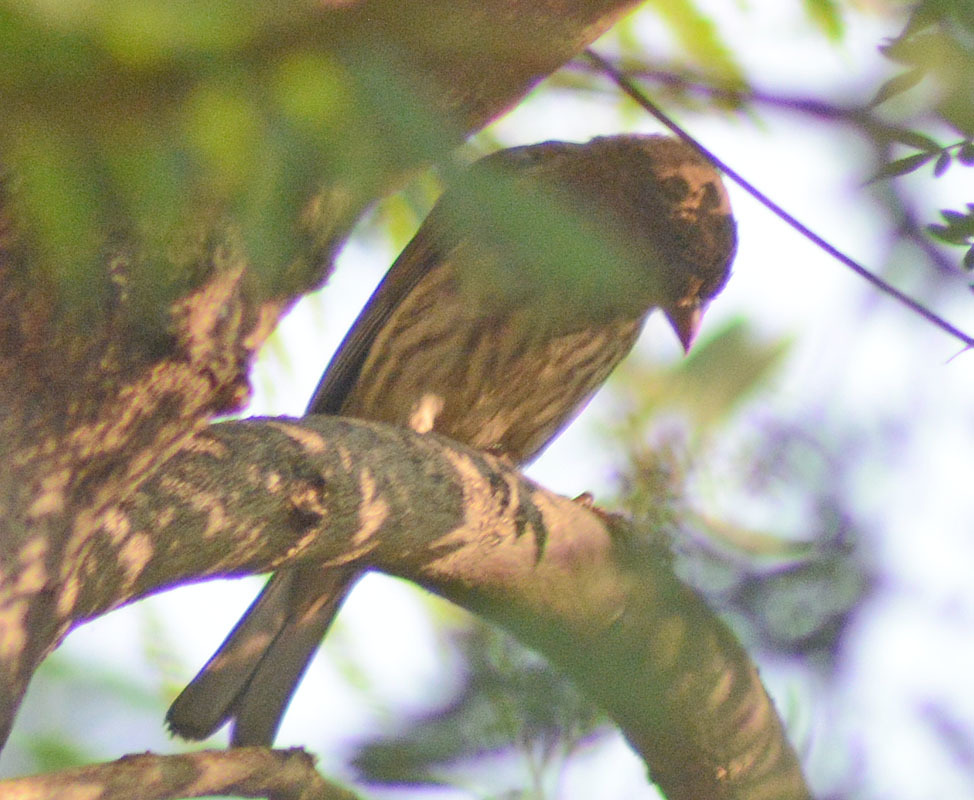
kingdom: Animalia
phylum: Chordata
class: Aves
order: Passeriformes
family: Fringillidae
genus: Haemorhous
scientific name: Haemorhous mexicanus
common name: House finch
